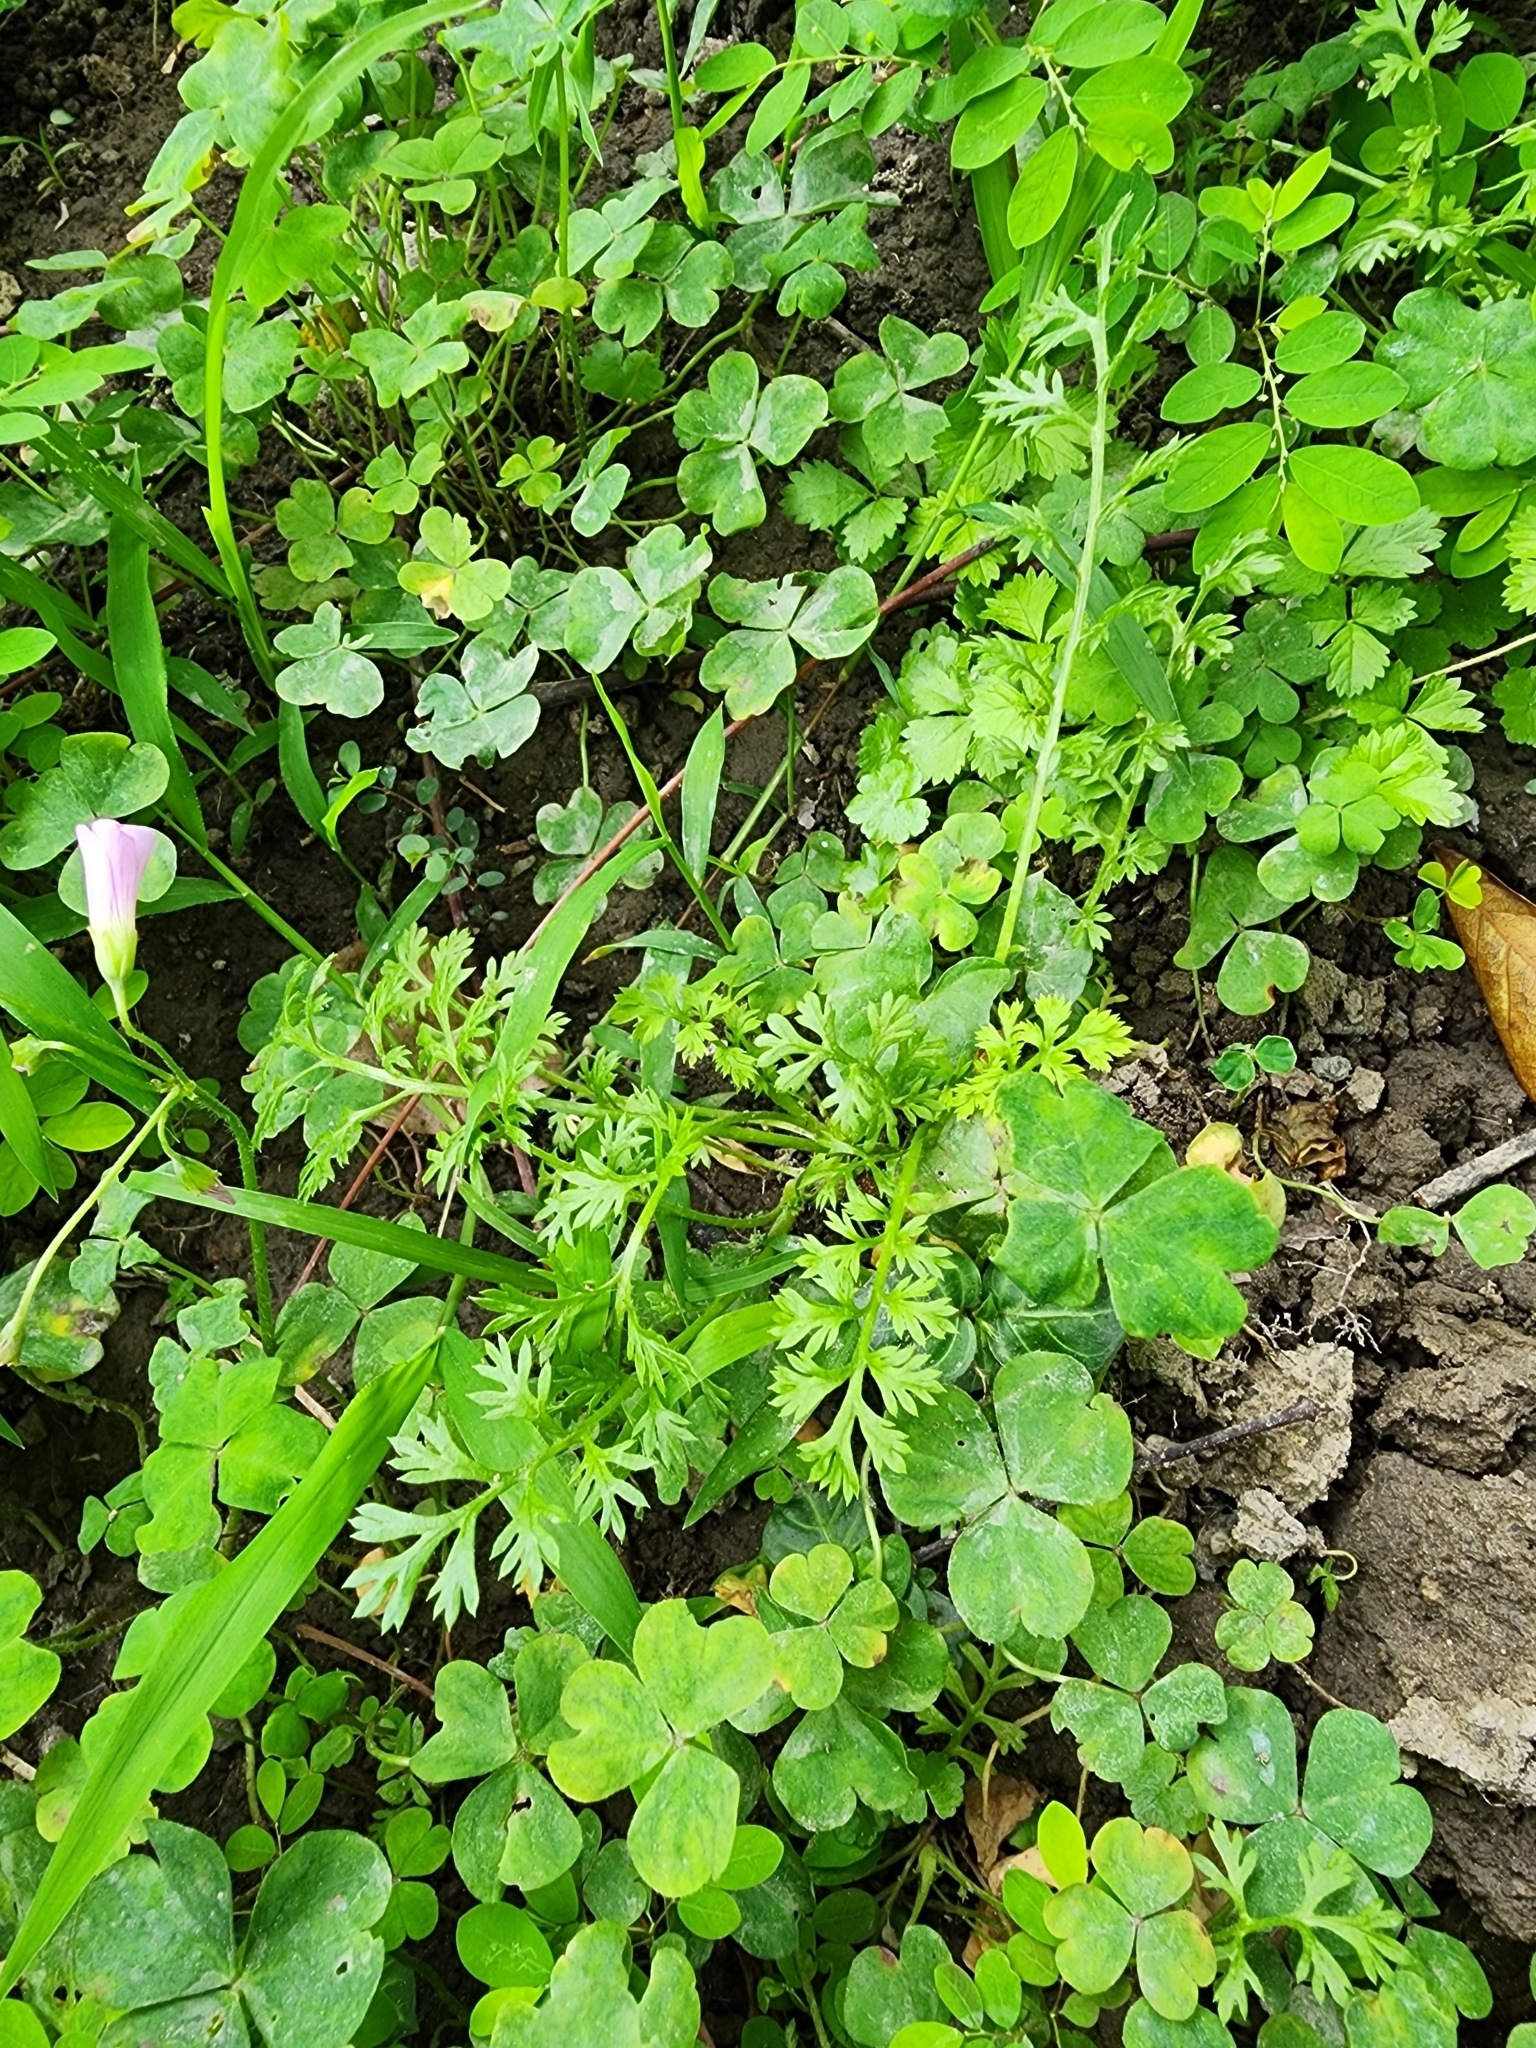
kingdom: Plantae
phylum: Tracheophyta
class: Magnoliopsida
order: Asterales
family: Asteraceae
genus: Soliva
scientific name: Soliva anthemifolia
